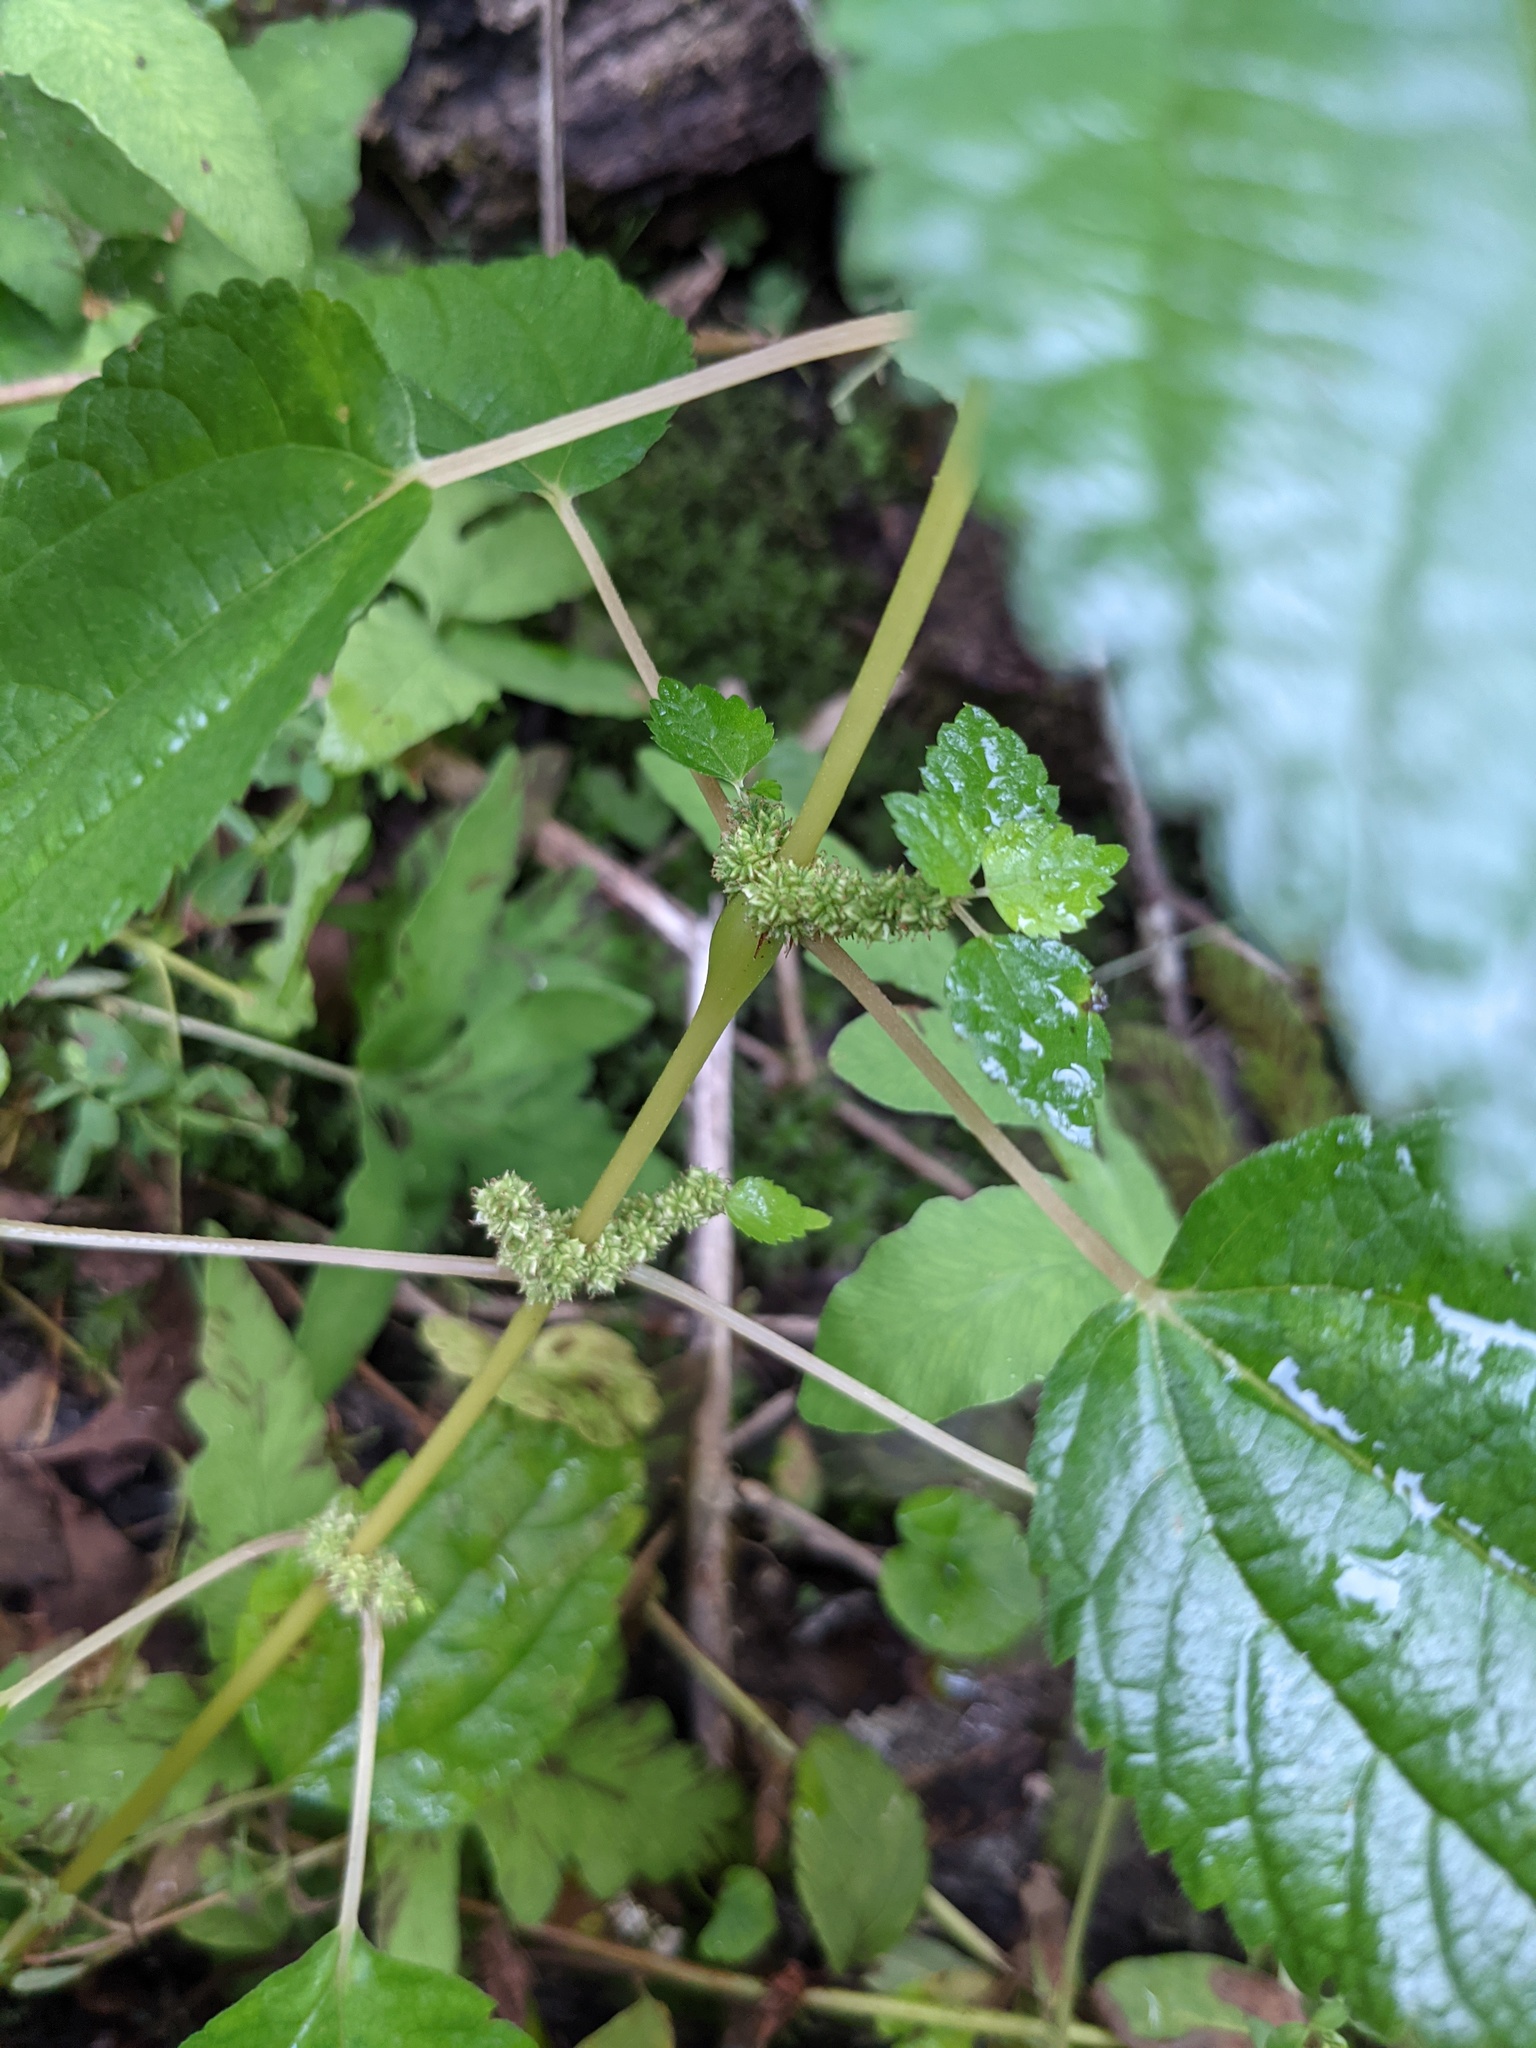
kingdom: Plantae
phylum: Tracheophyta
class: Magnoliopsida
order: Rosales
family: Urticaceae
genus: Boehmeria
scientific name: Boehmeria cylindrica
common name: Bog-hemp
